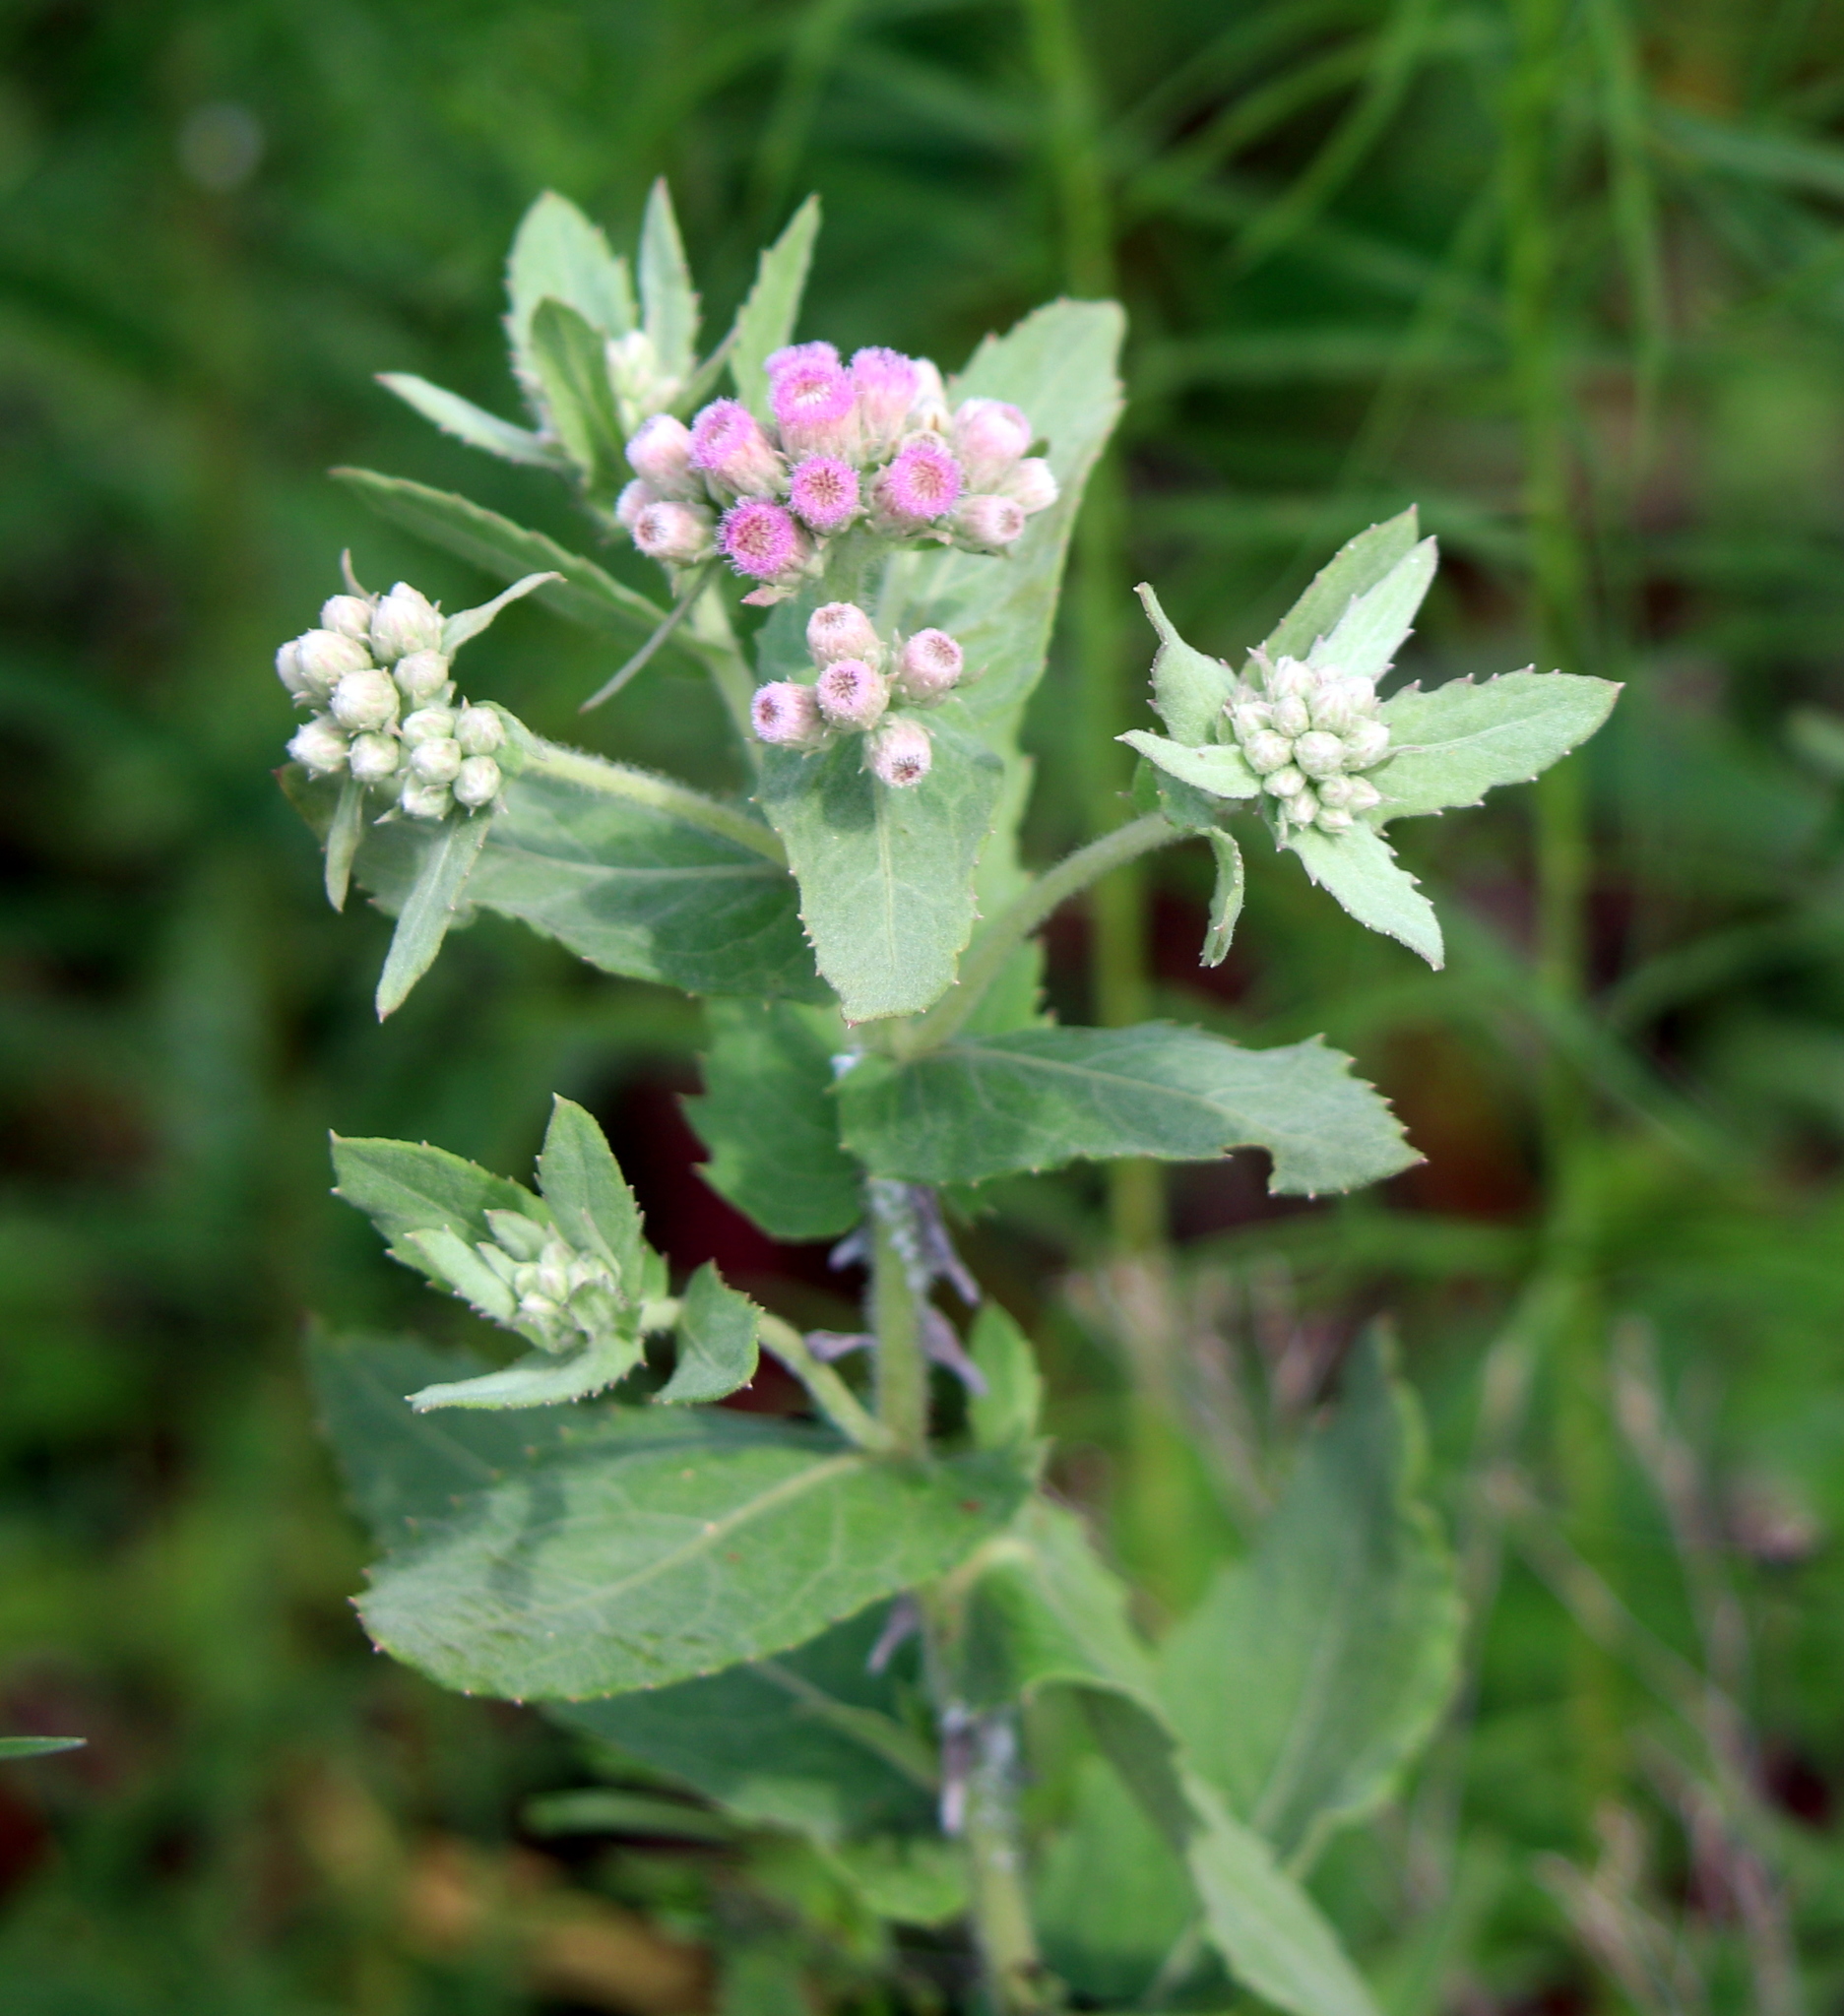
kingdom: Plantae
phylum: Tracheophyta
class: Magnoliopsida
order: Asterales
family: Asteraceae
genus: Pluchea
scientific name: Pluchea baccharis
